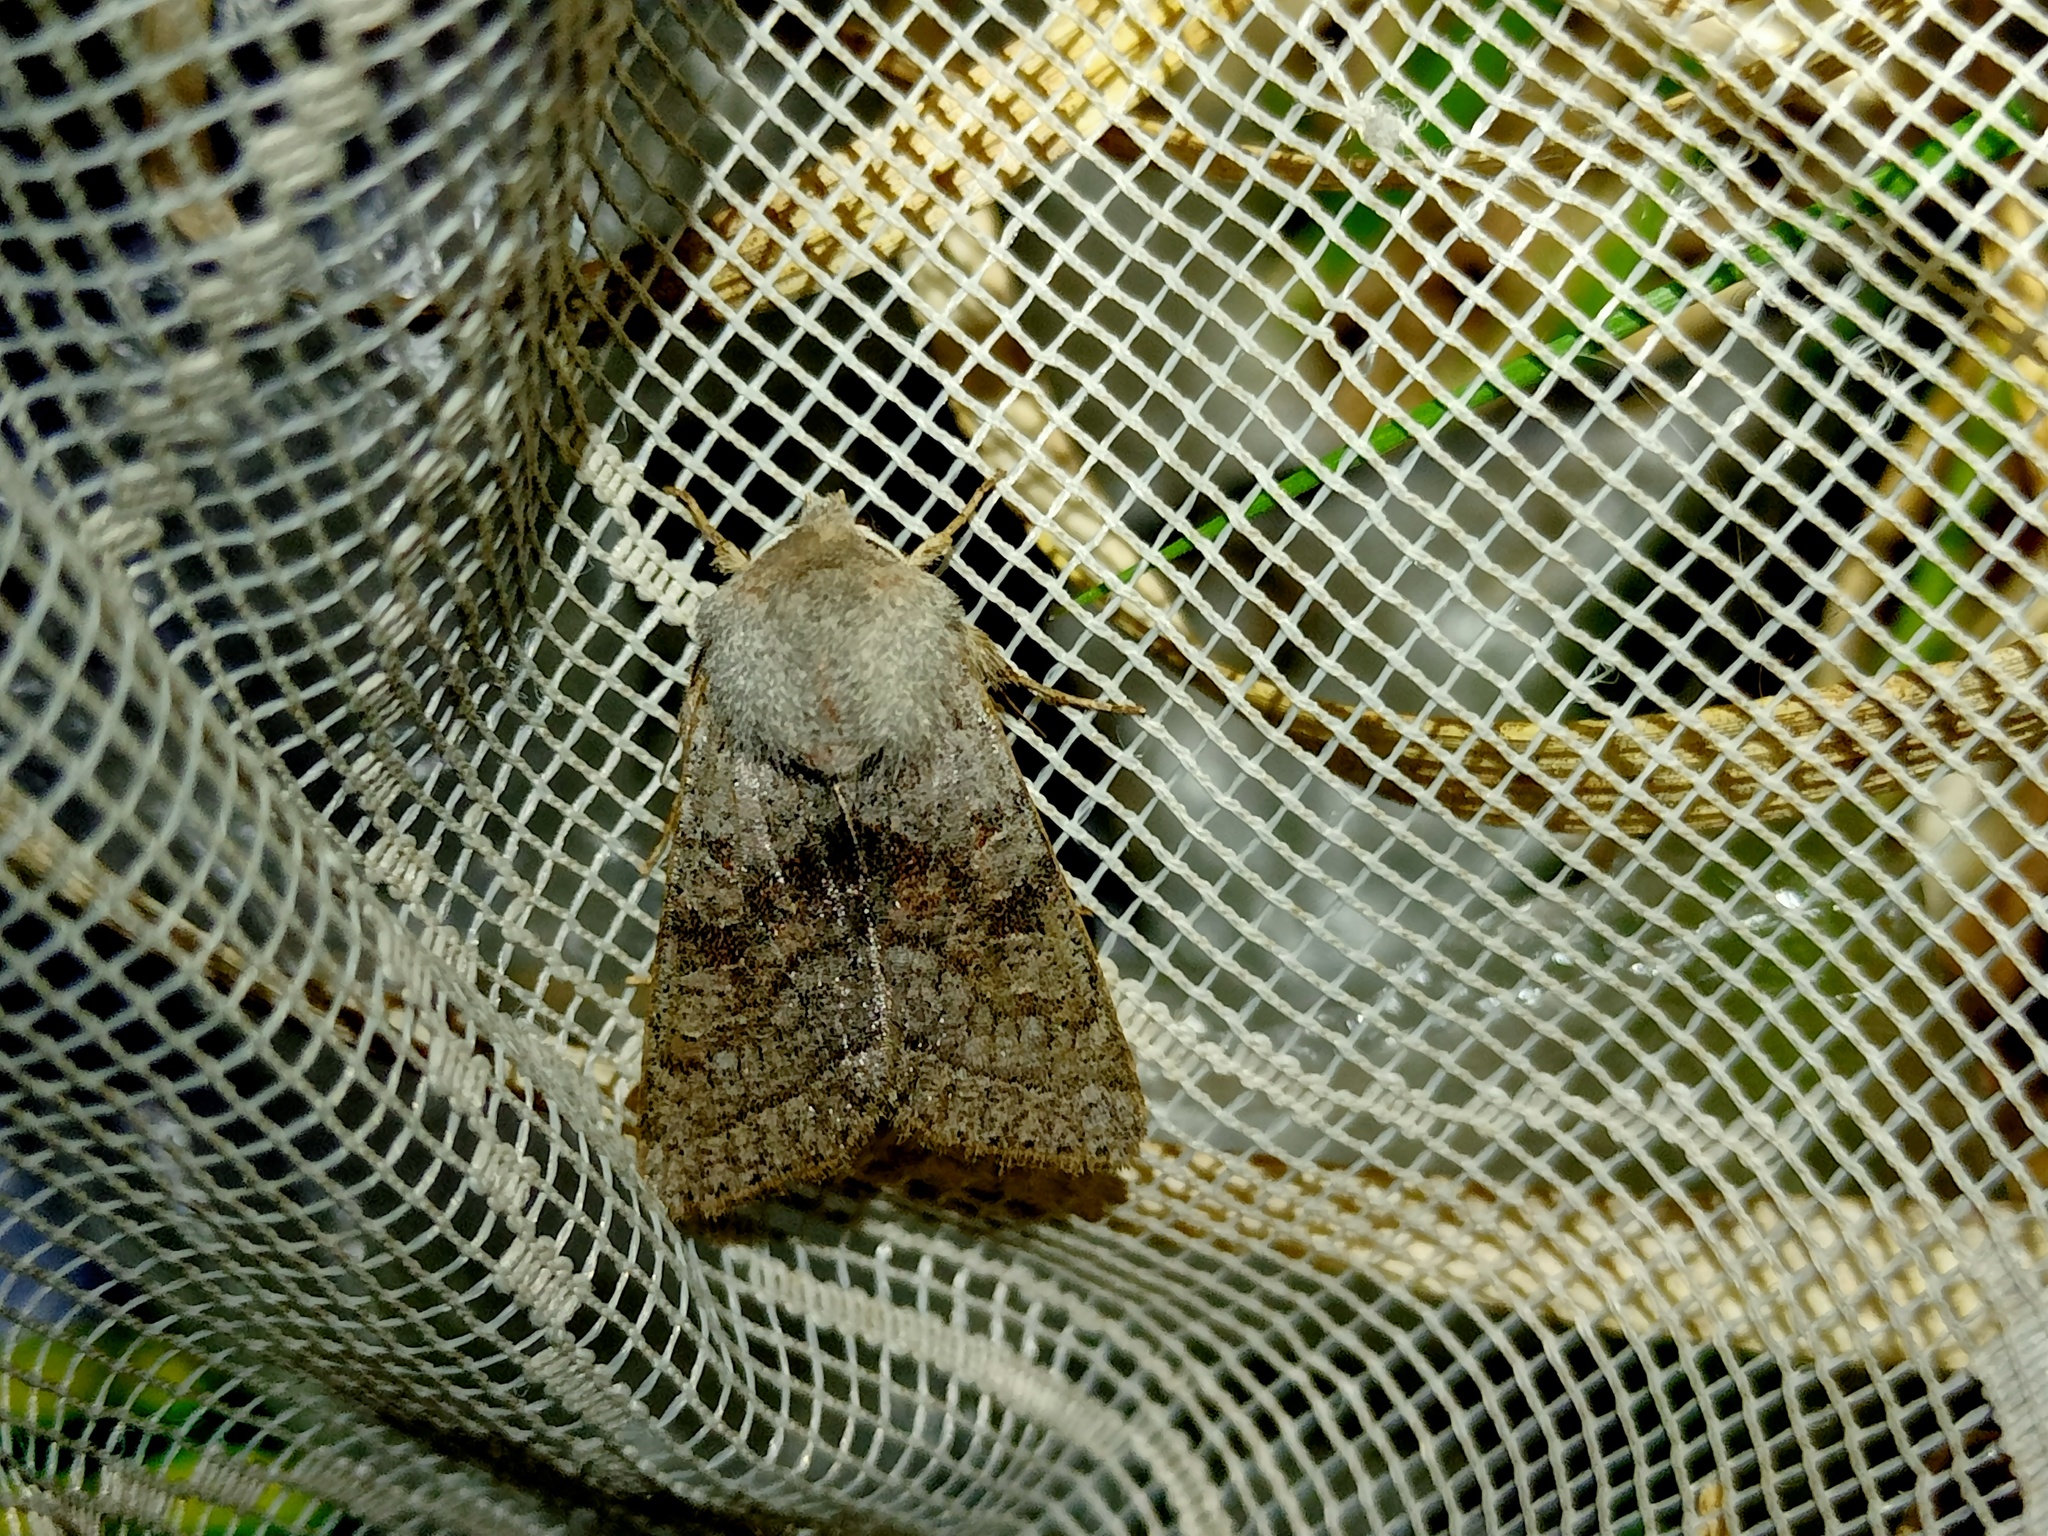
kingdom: Animalia
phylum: Arthropoda
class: Insecta
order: Lepidoptera
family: Noctuidae
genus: Orthosia
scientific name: Orthosia opima
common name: Northern drab
